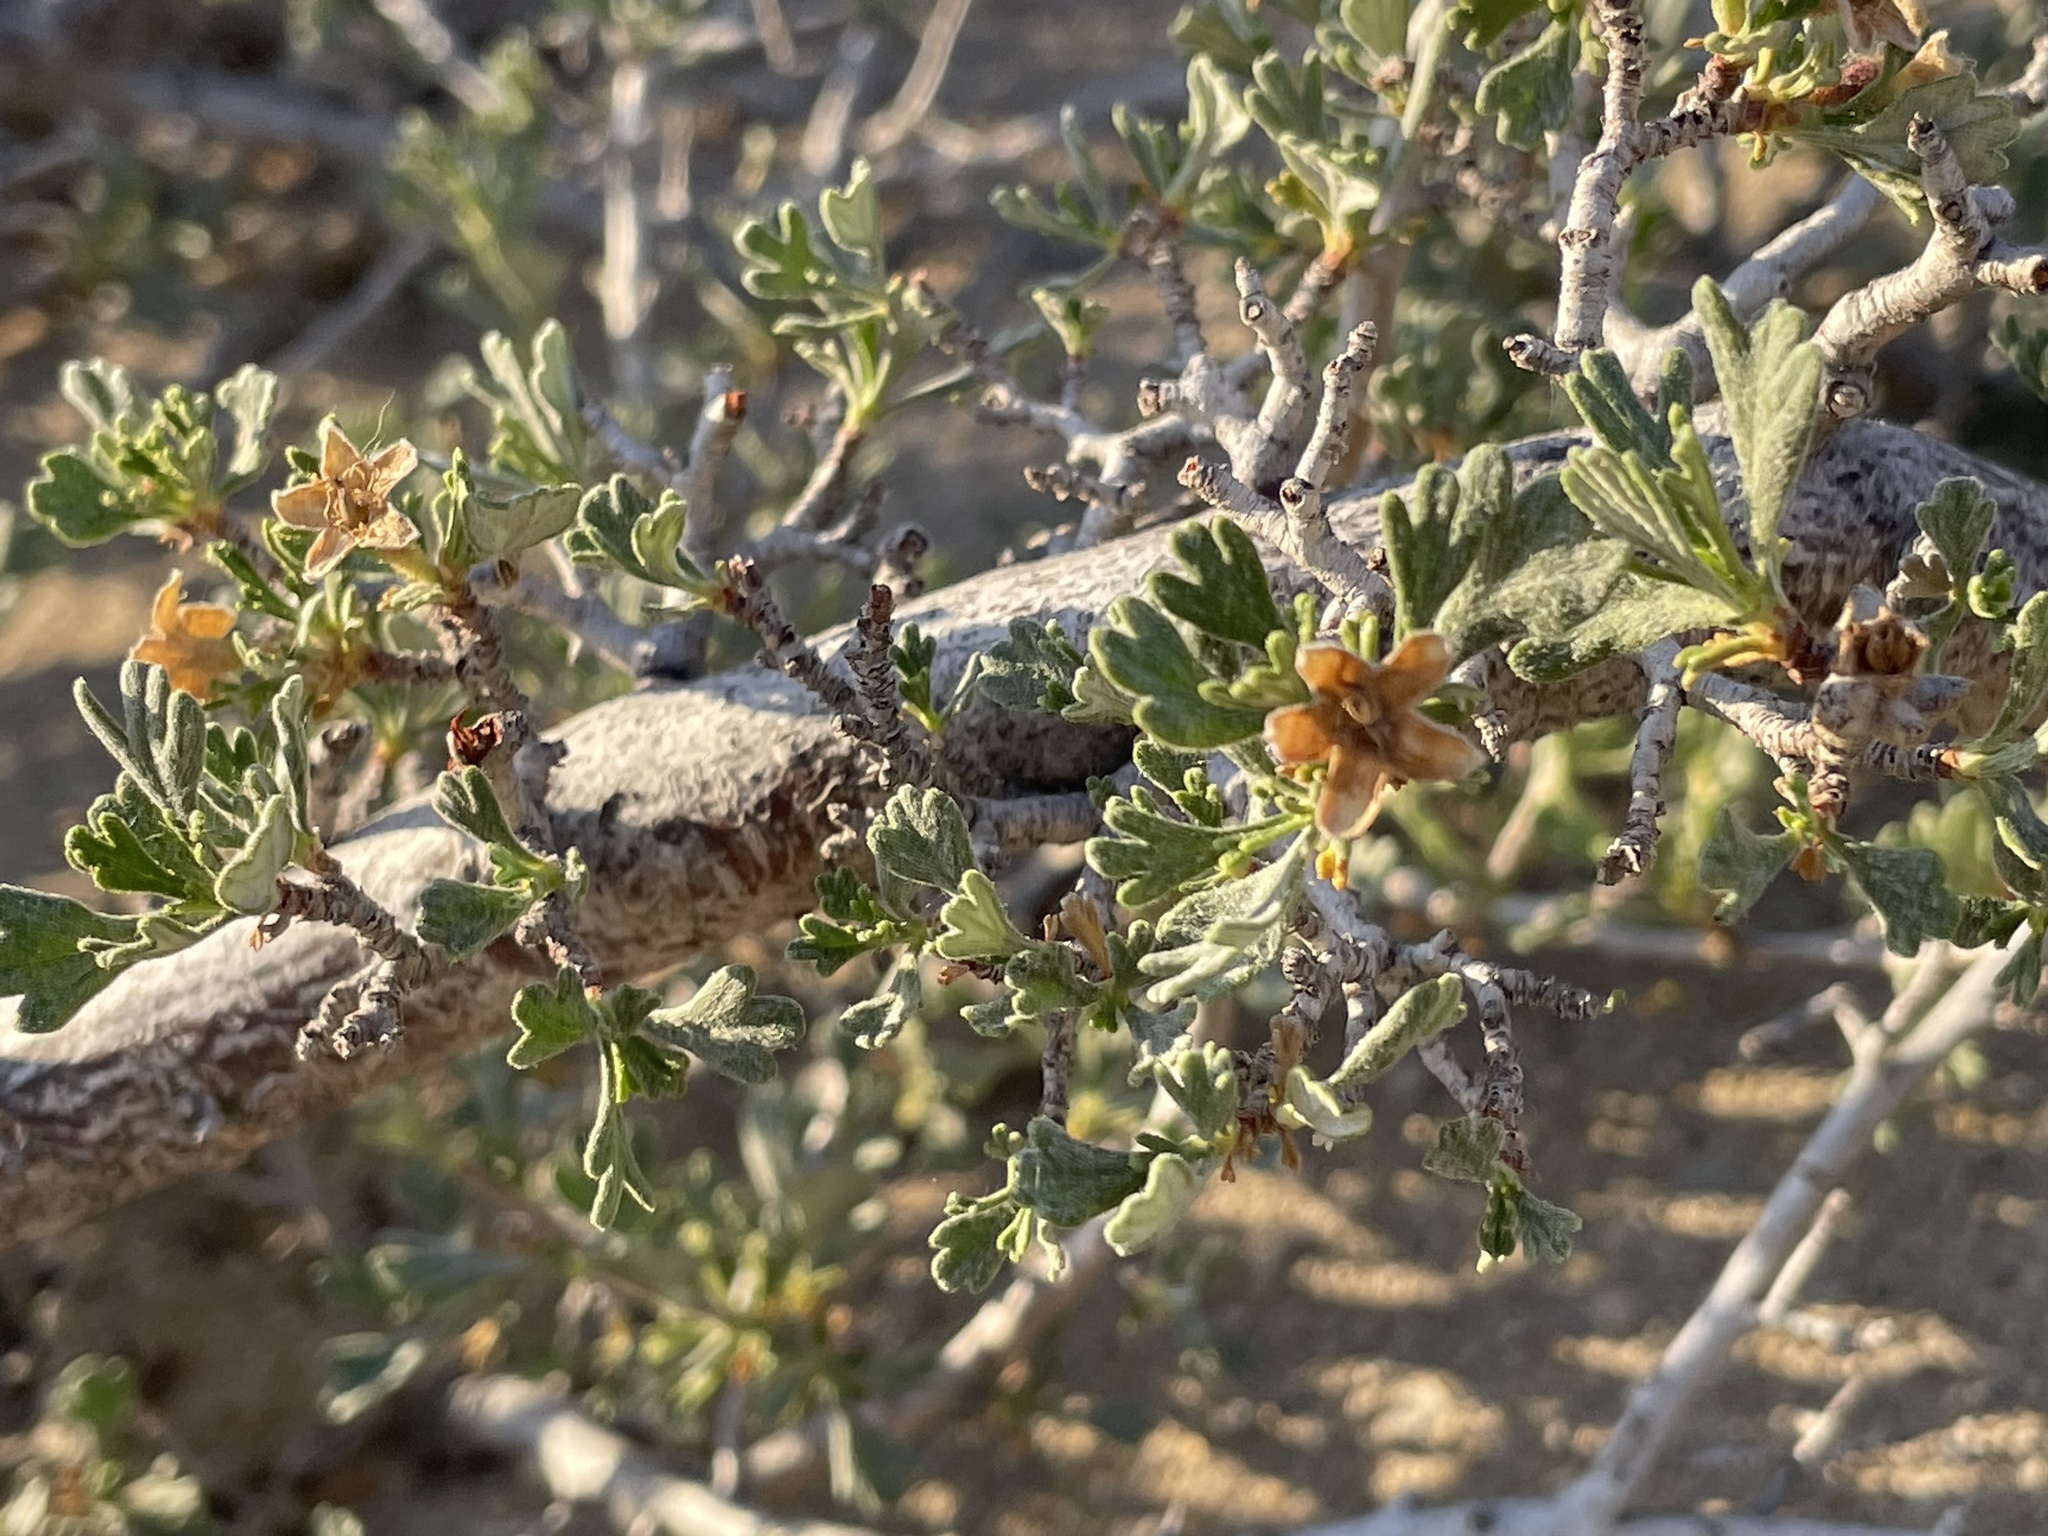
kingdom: Plantae
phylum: Tracheophyta
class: Magnoliopsida
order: Rosales
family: Rosaceae
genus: Purshia
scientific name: Purshia tridentata
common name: Antelope bitterbrush
